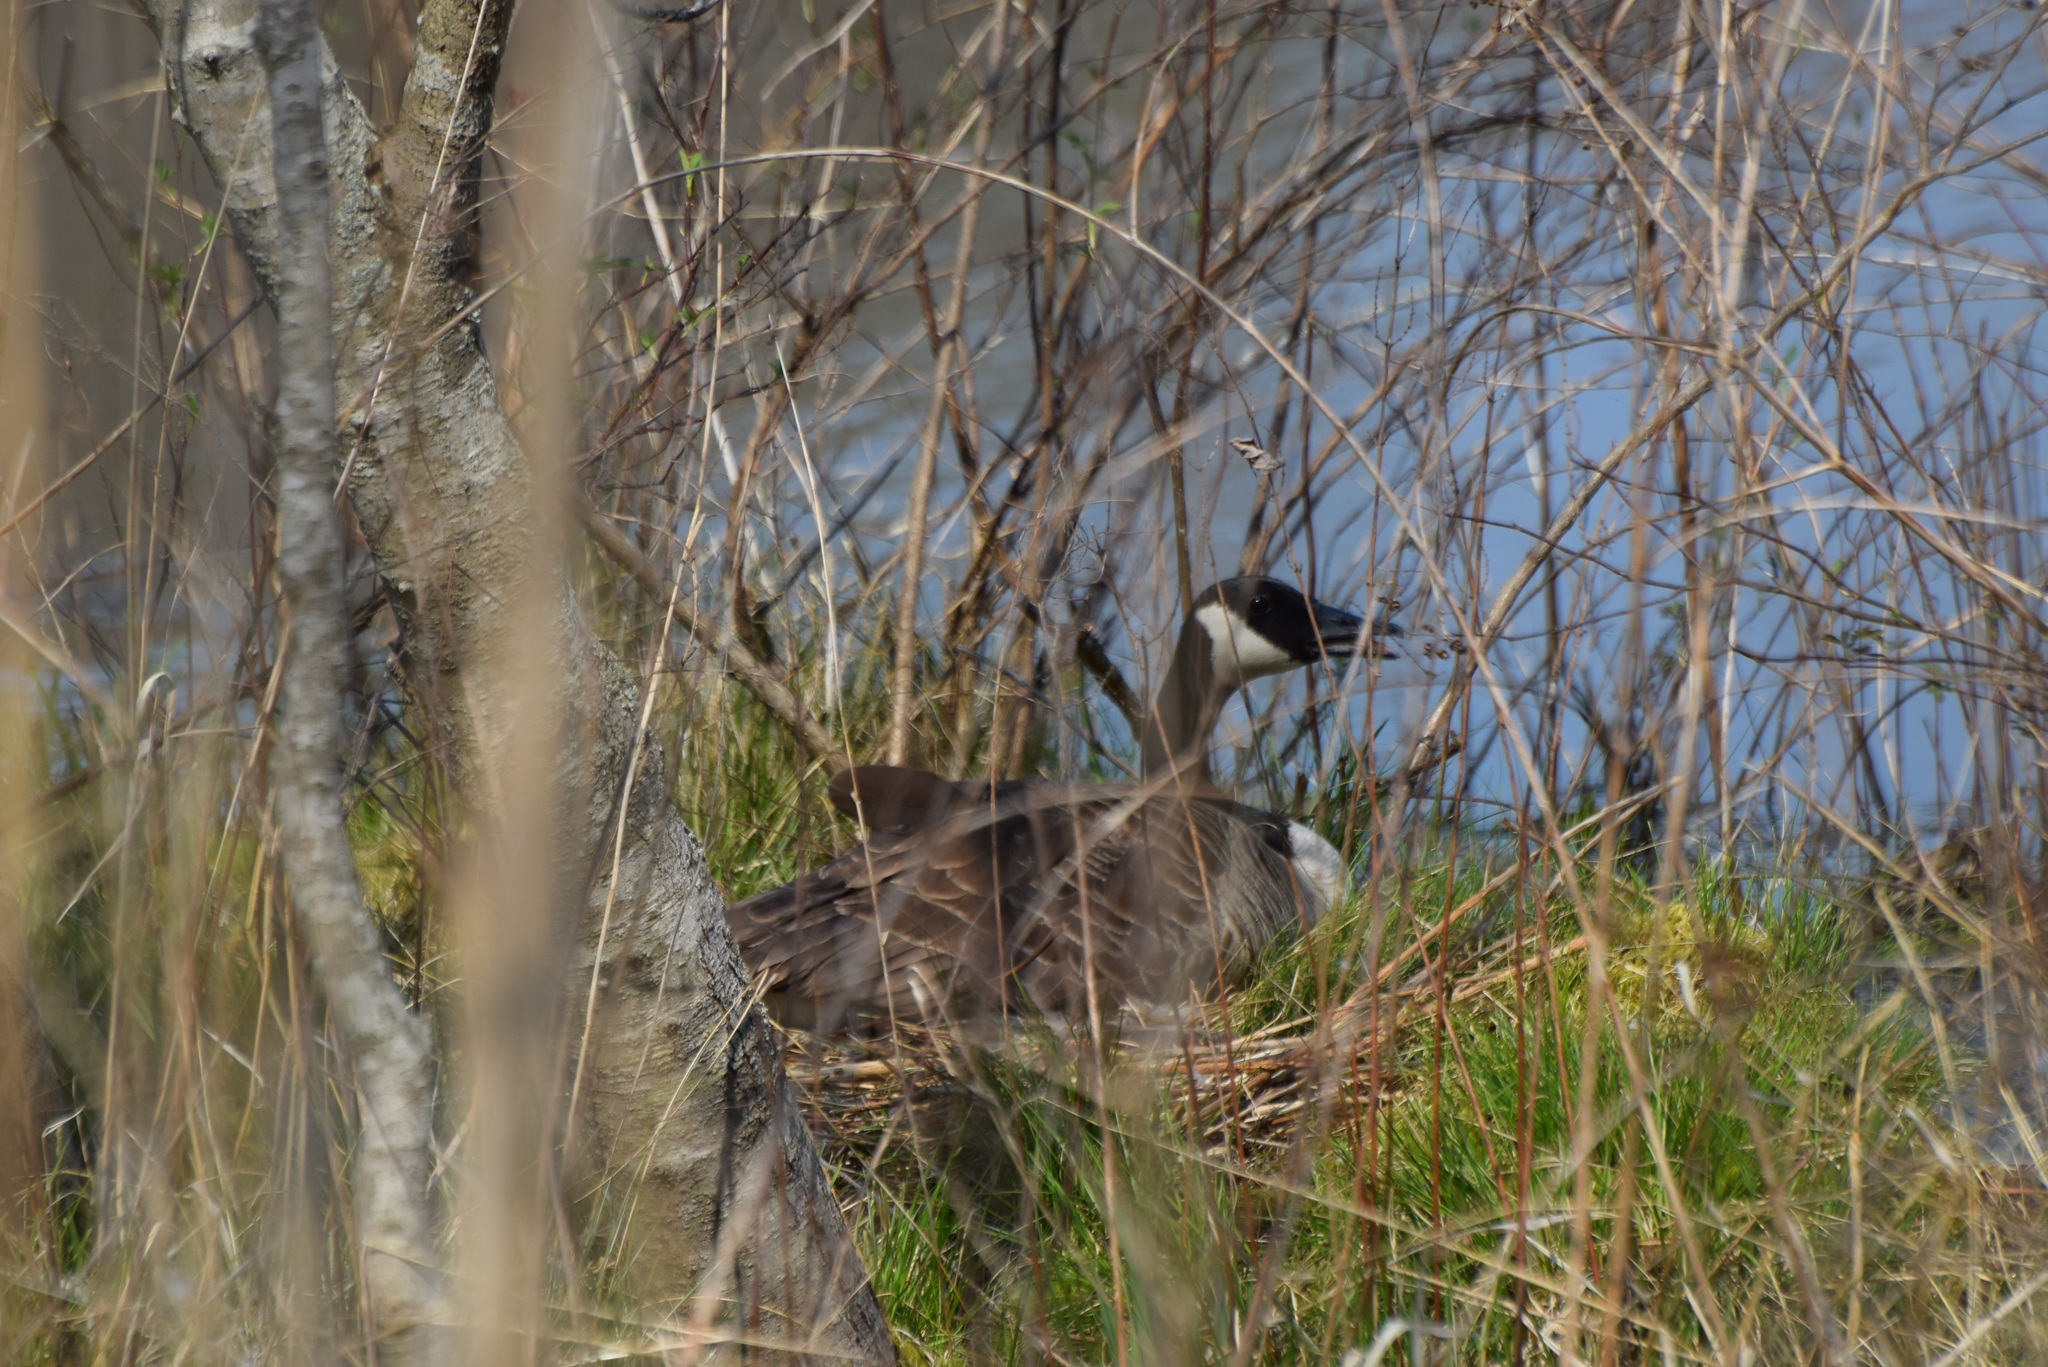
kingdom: Animalia
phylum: Chordata
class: Aves
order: Anseriformes
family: Anatidae
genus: Branta
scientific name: Branta canadensis
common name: Canada goose
